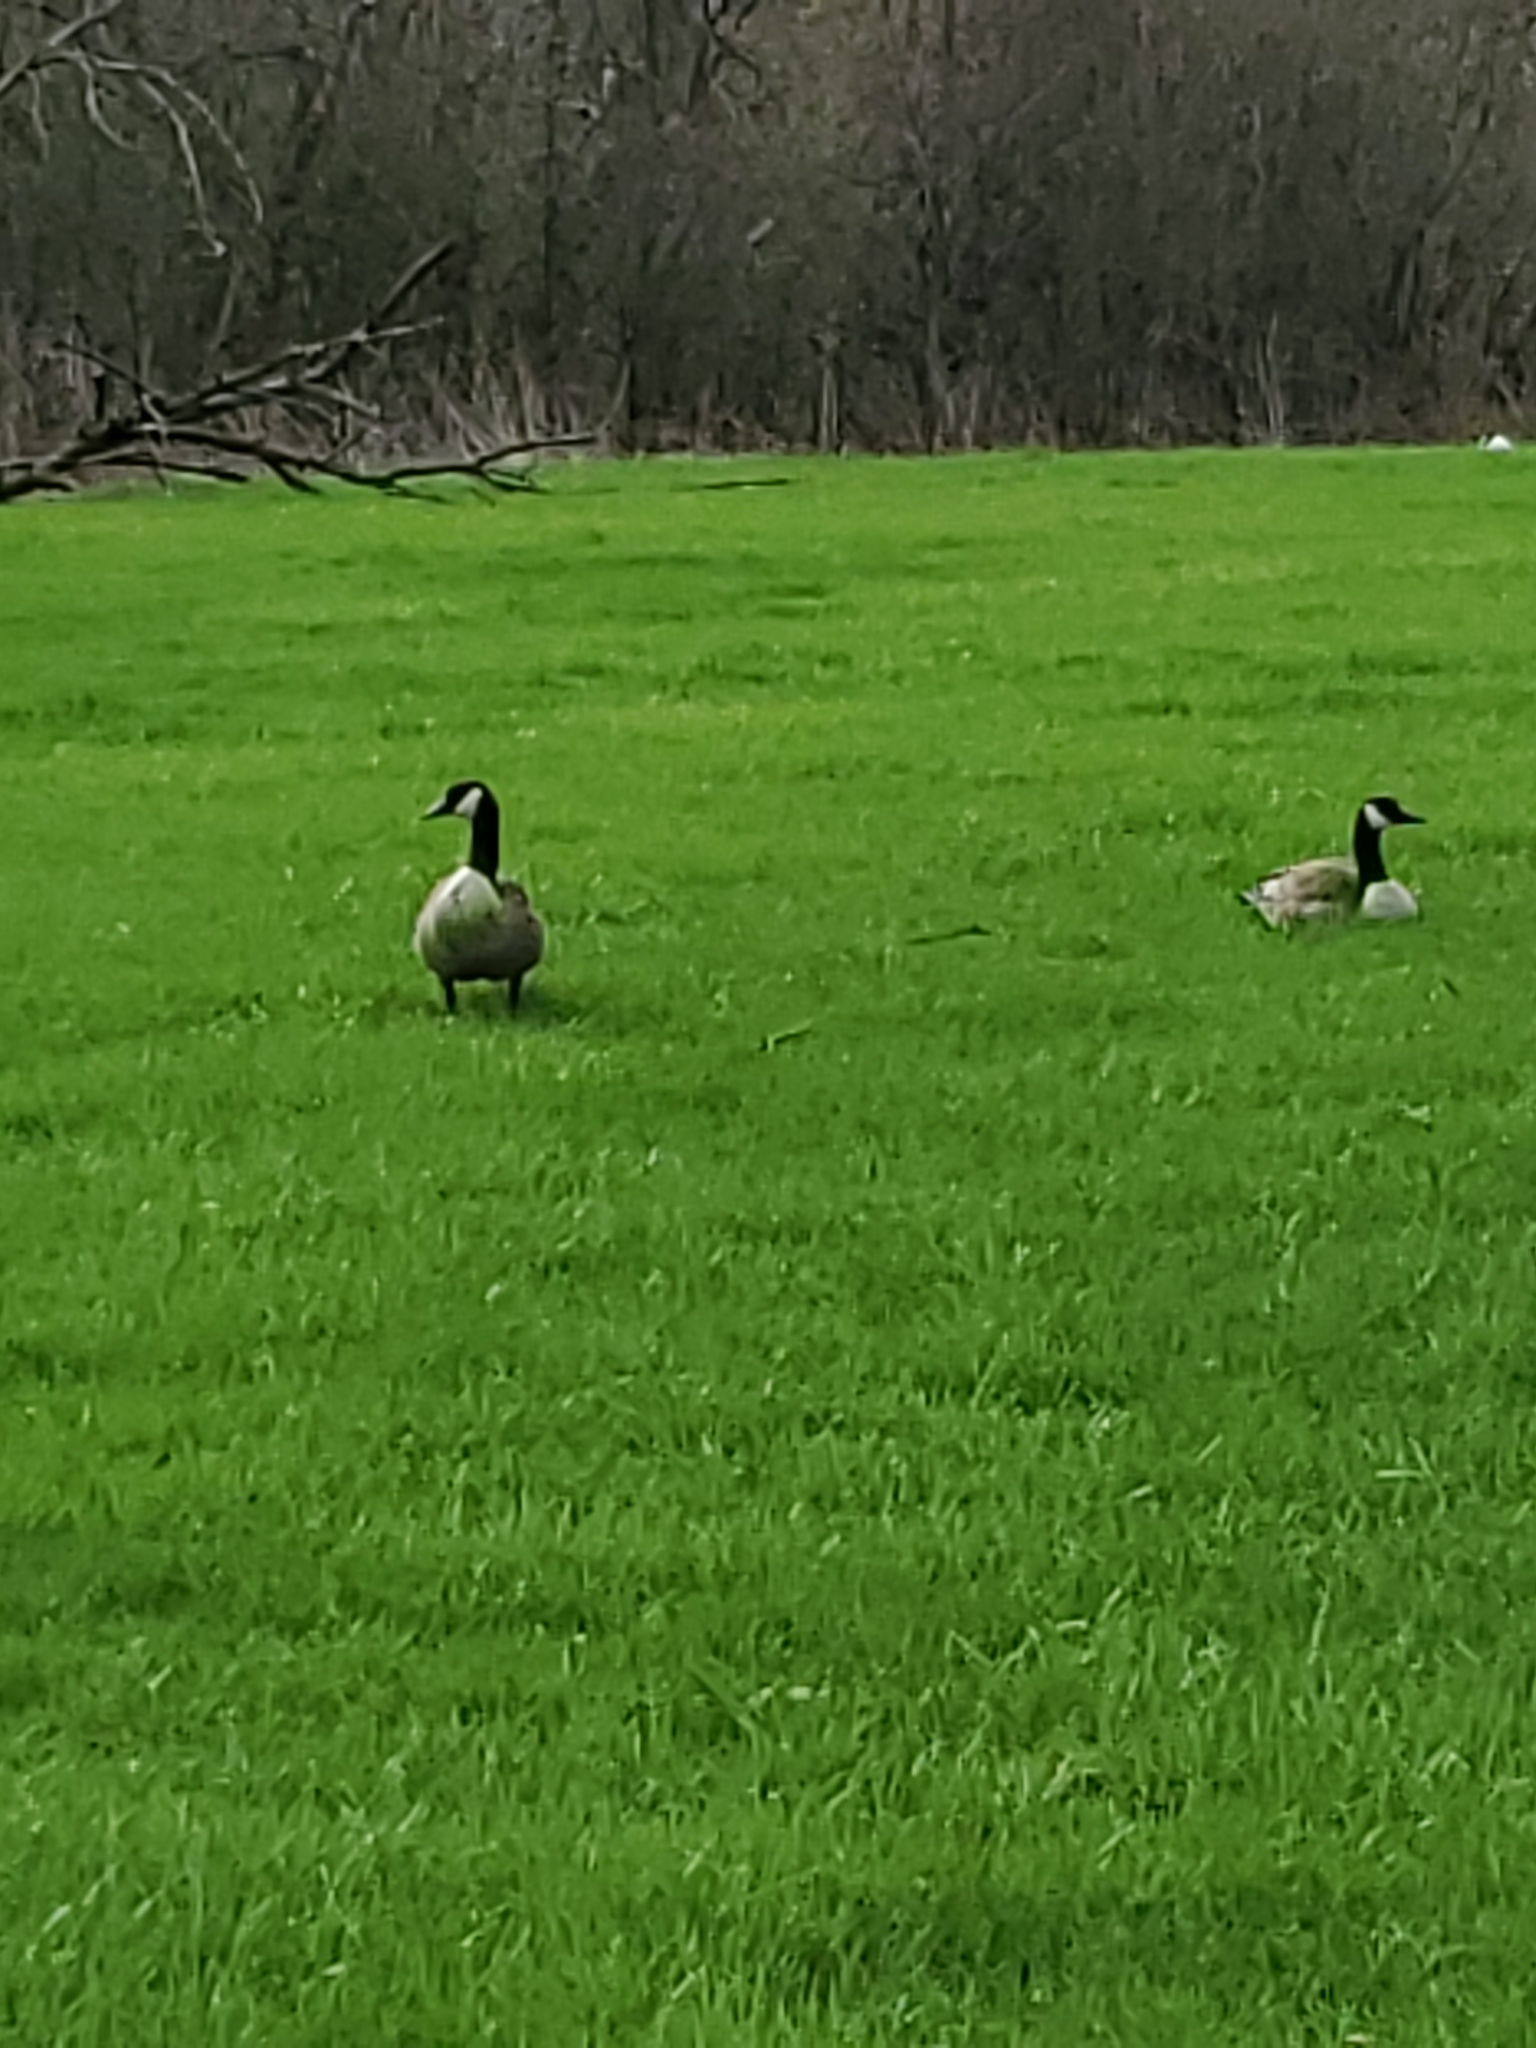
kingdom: Animalia
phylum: Chordata
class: Aves
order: Anseriformes
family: Anatidae
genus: Branta
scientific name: Branta canadensis
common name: Canada goose
